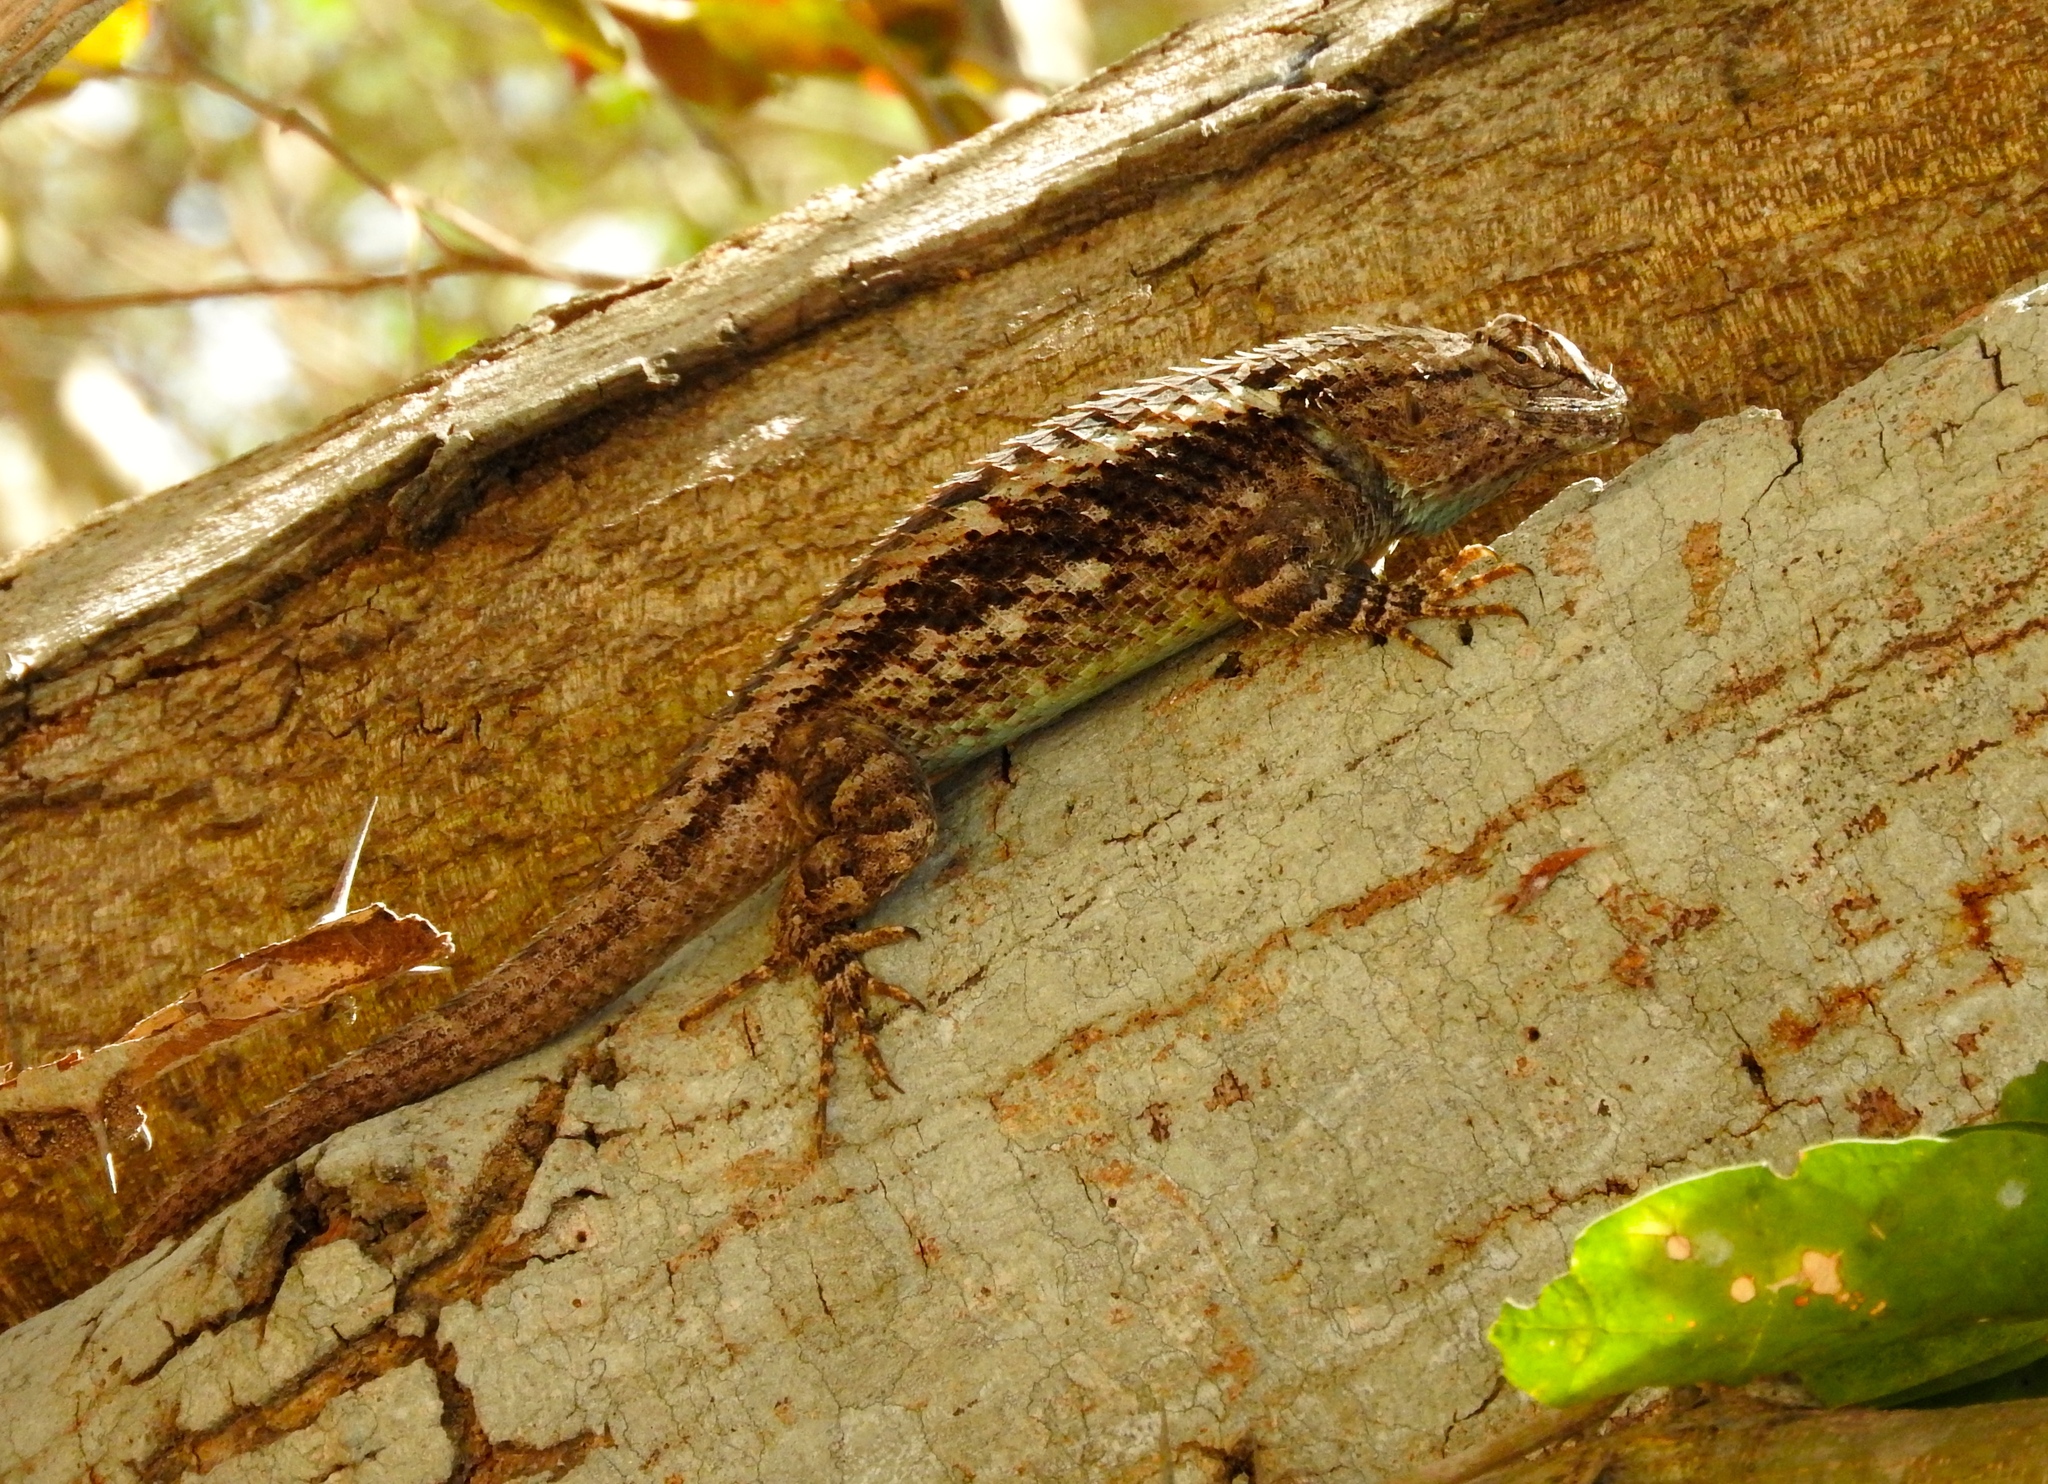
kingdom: Animalia
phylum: Chordata
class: Squamata
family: Phrynosomatidae
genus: Sceloporus
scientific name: Sceloporus
